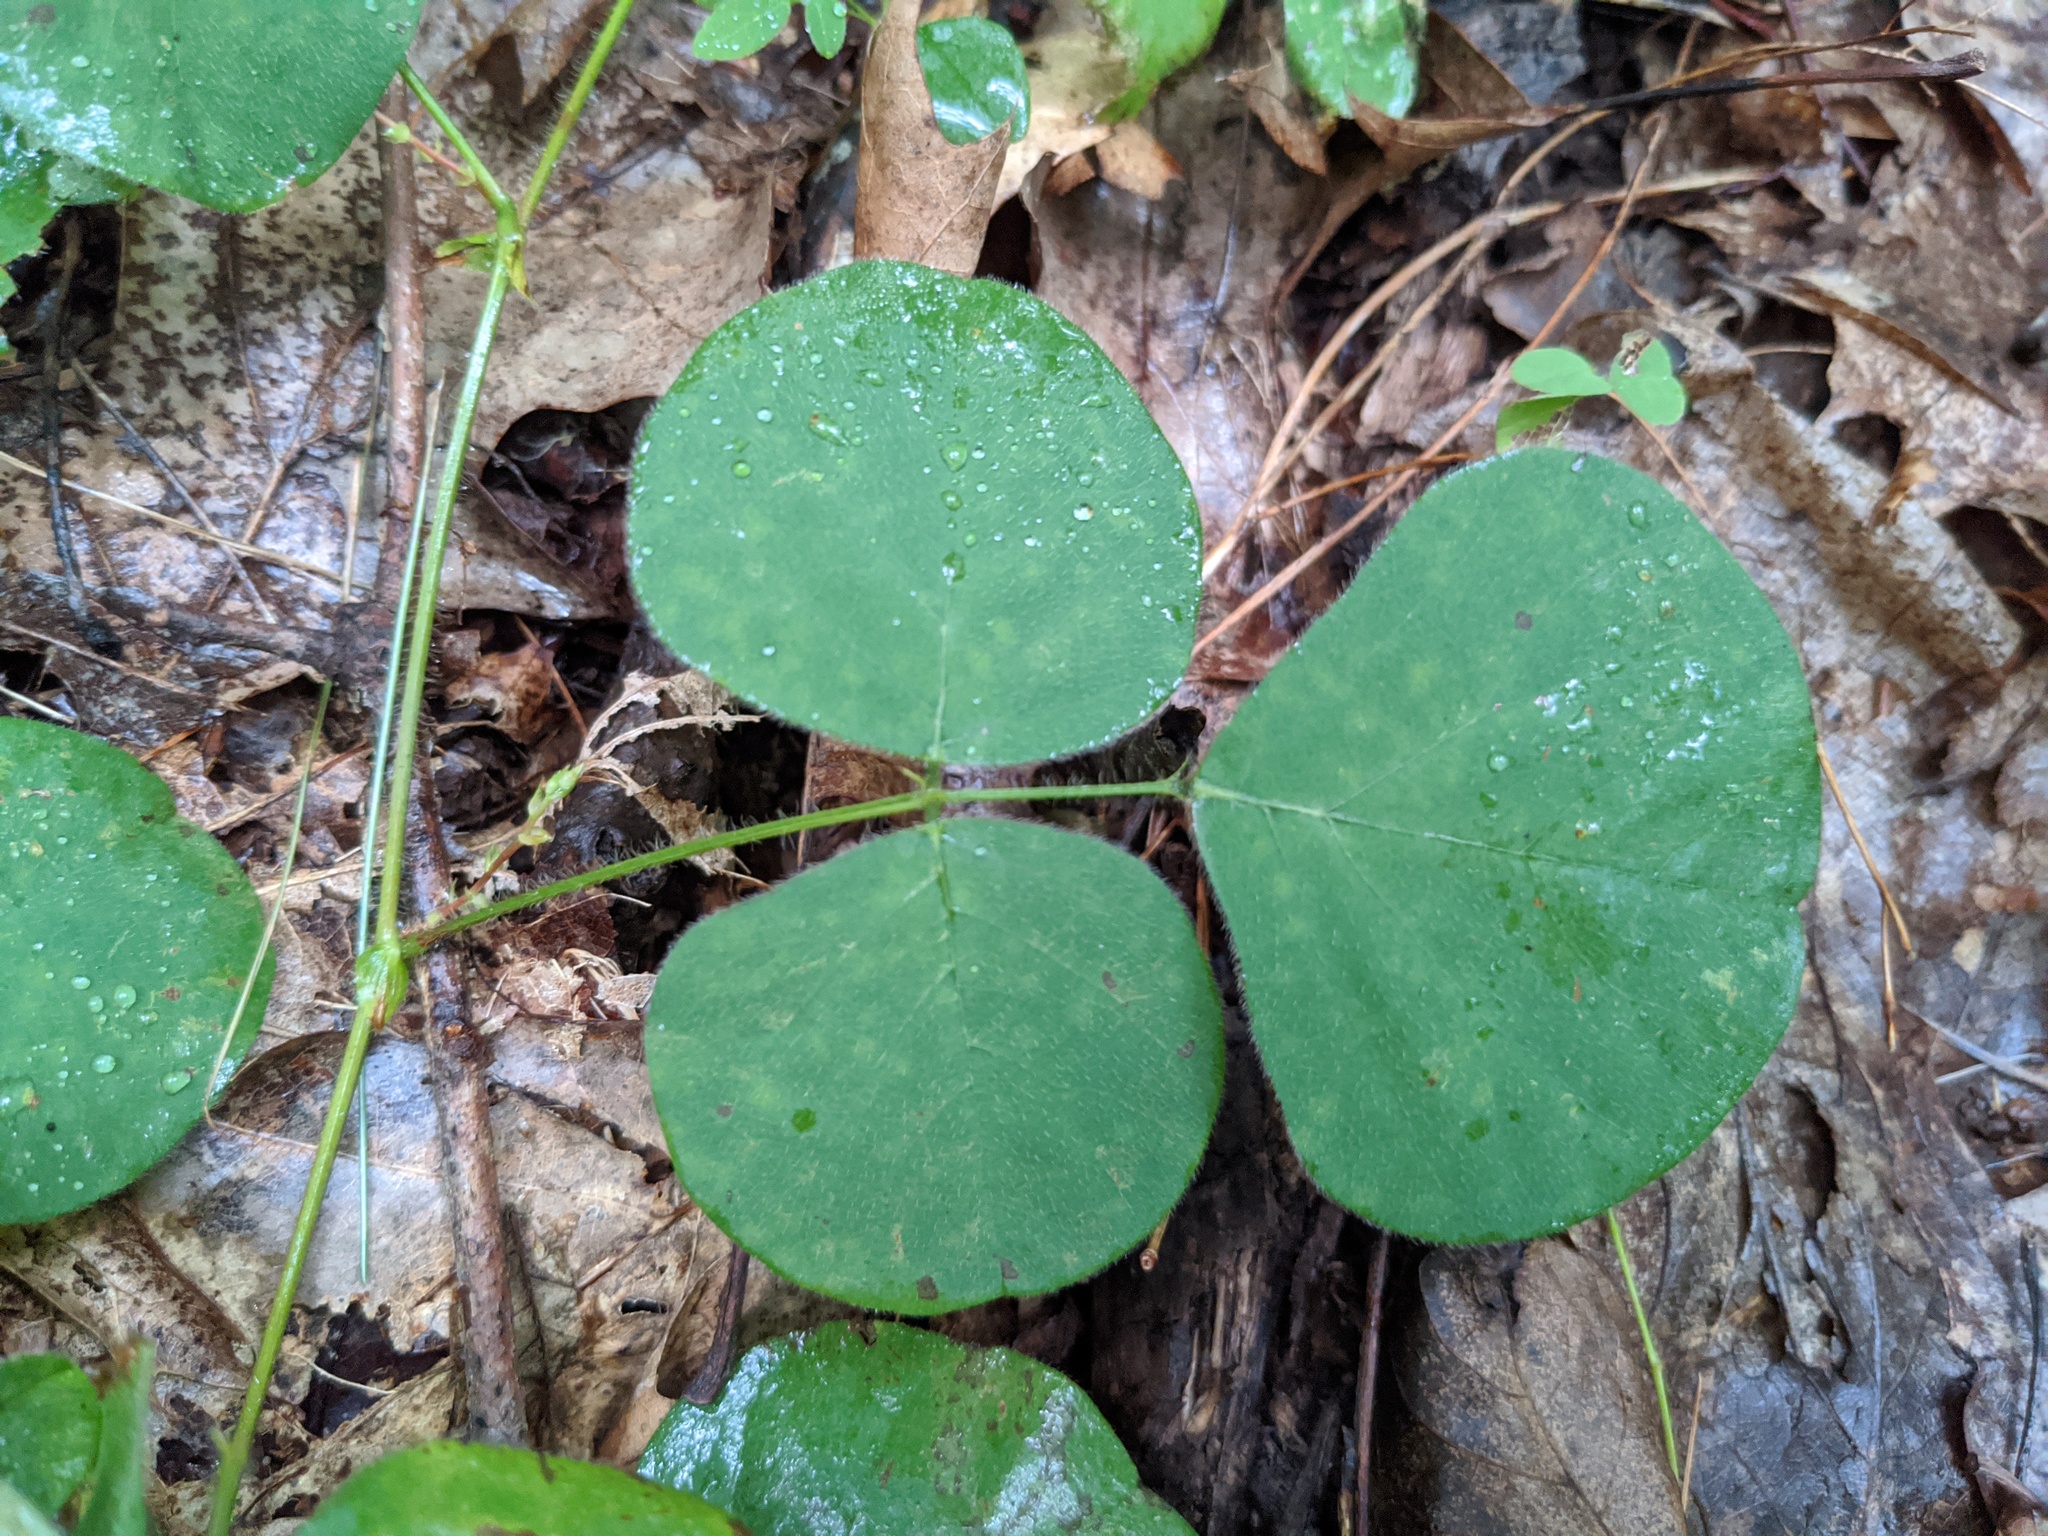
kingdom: Plantae
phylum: Tracheophyta
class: Magnoliopsida
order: Fabales
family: Fabaceae
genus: Desmodium
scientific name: Desmodium rotundifolium
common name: Dollarleaf
